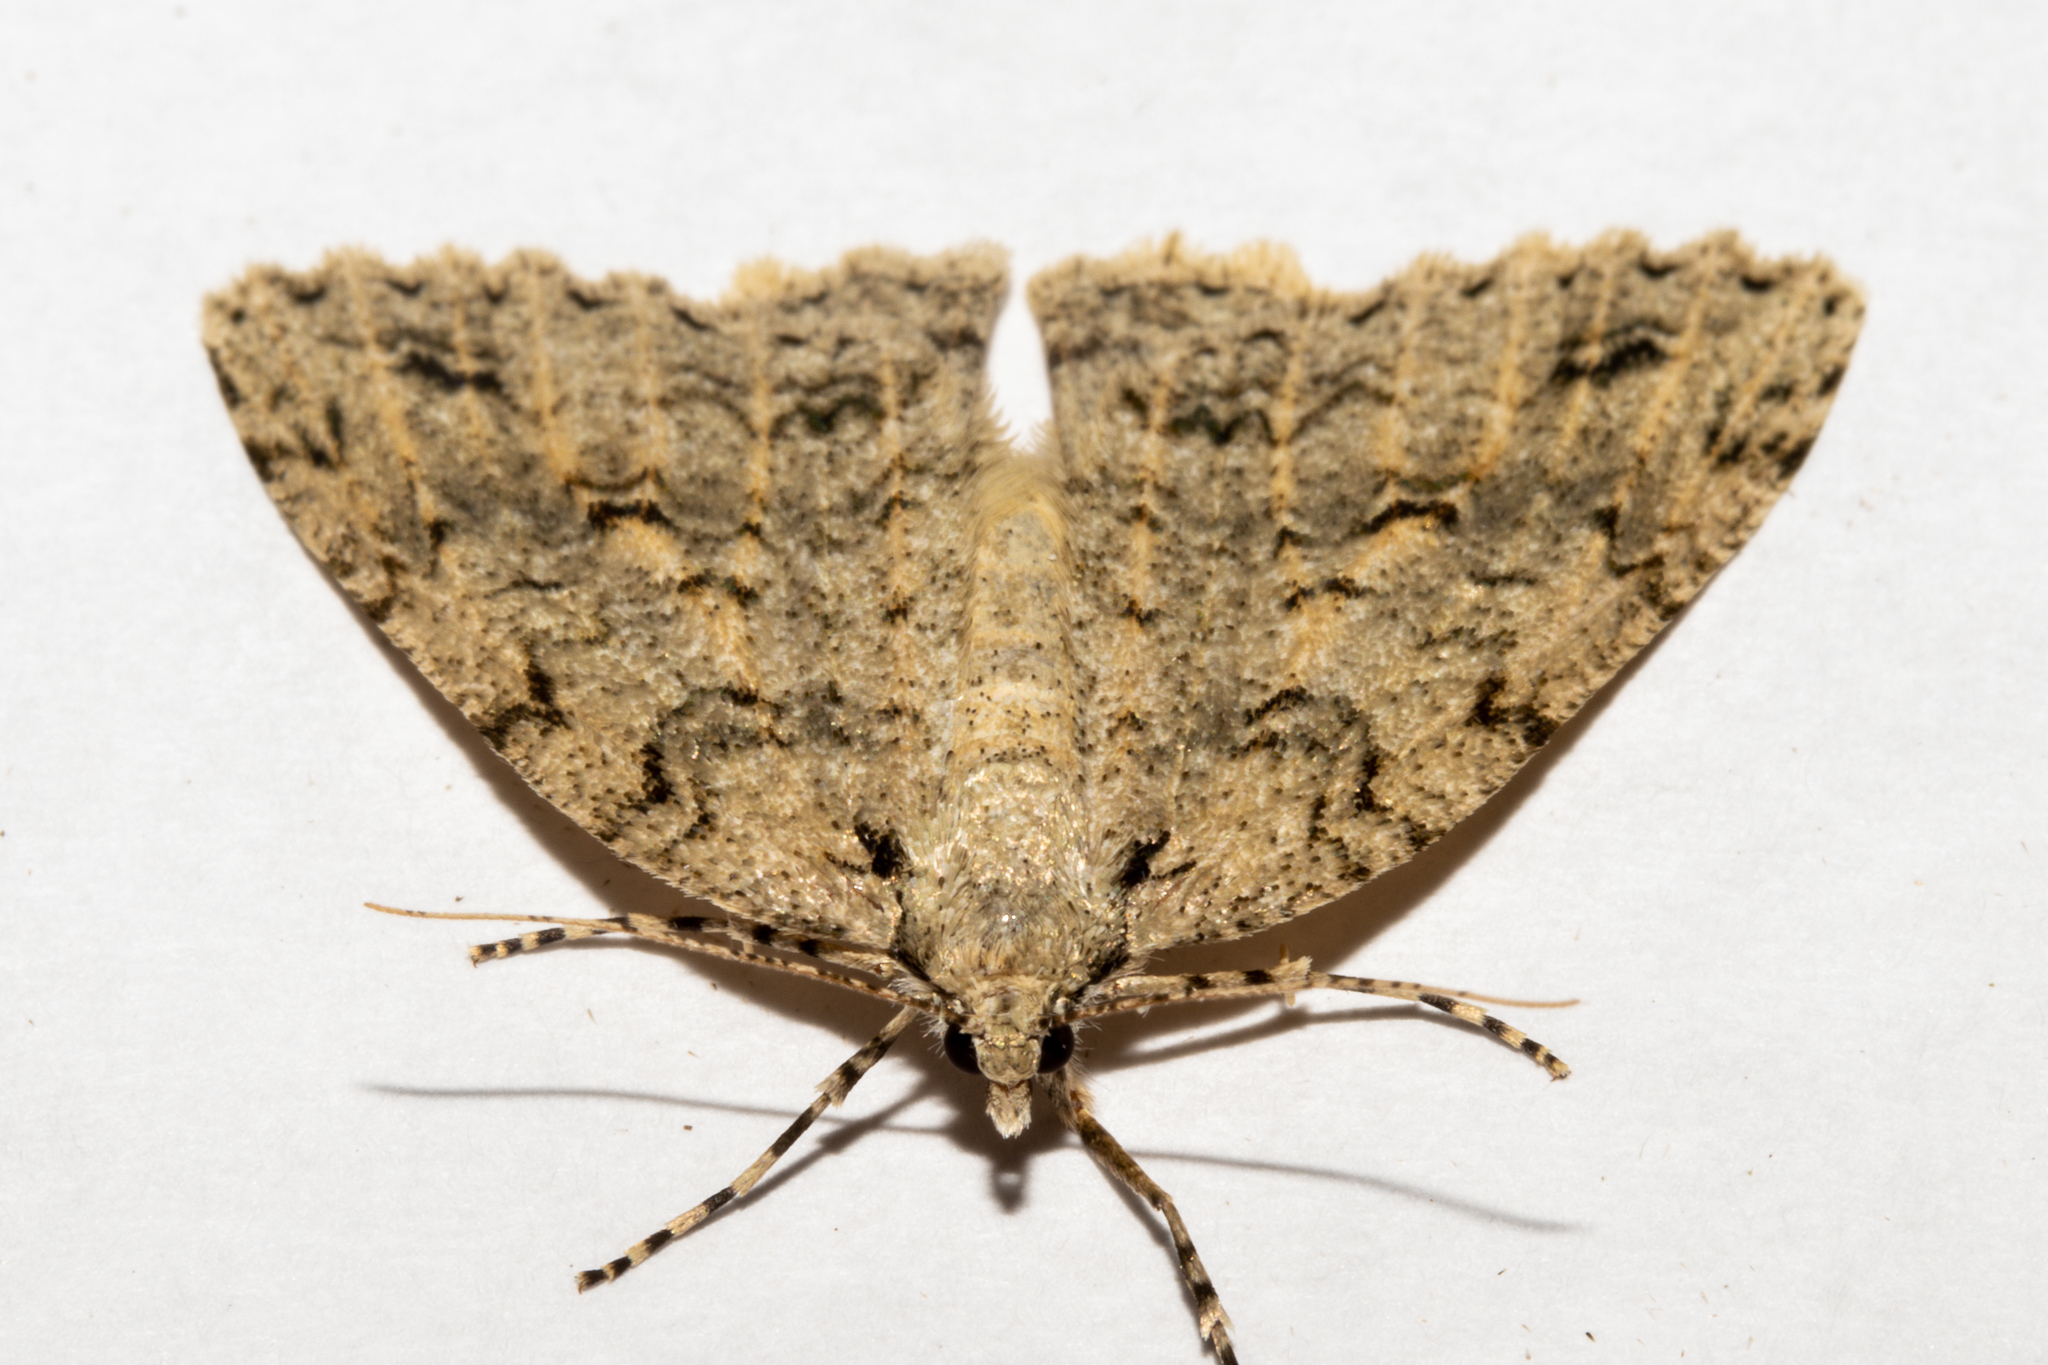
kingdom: Animalia
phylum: Arthropoda
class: Insecta
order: Lepidoptera
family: Geometridae
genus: Pseudocoremia
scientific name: Pseudocoremia rudisata
